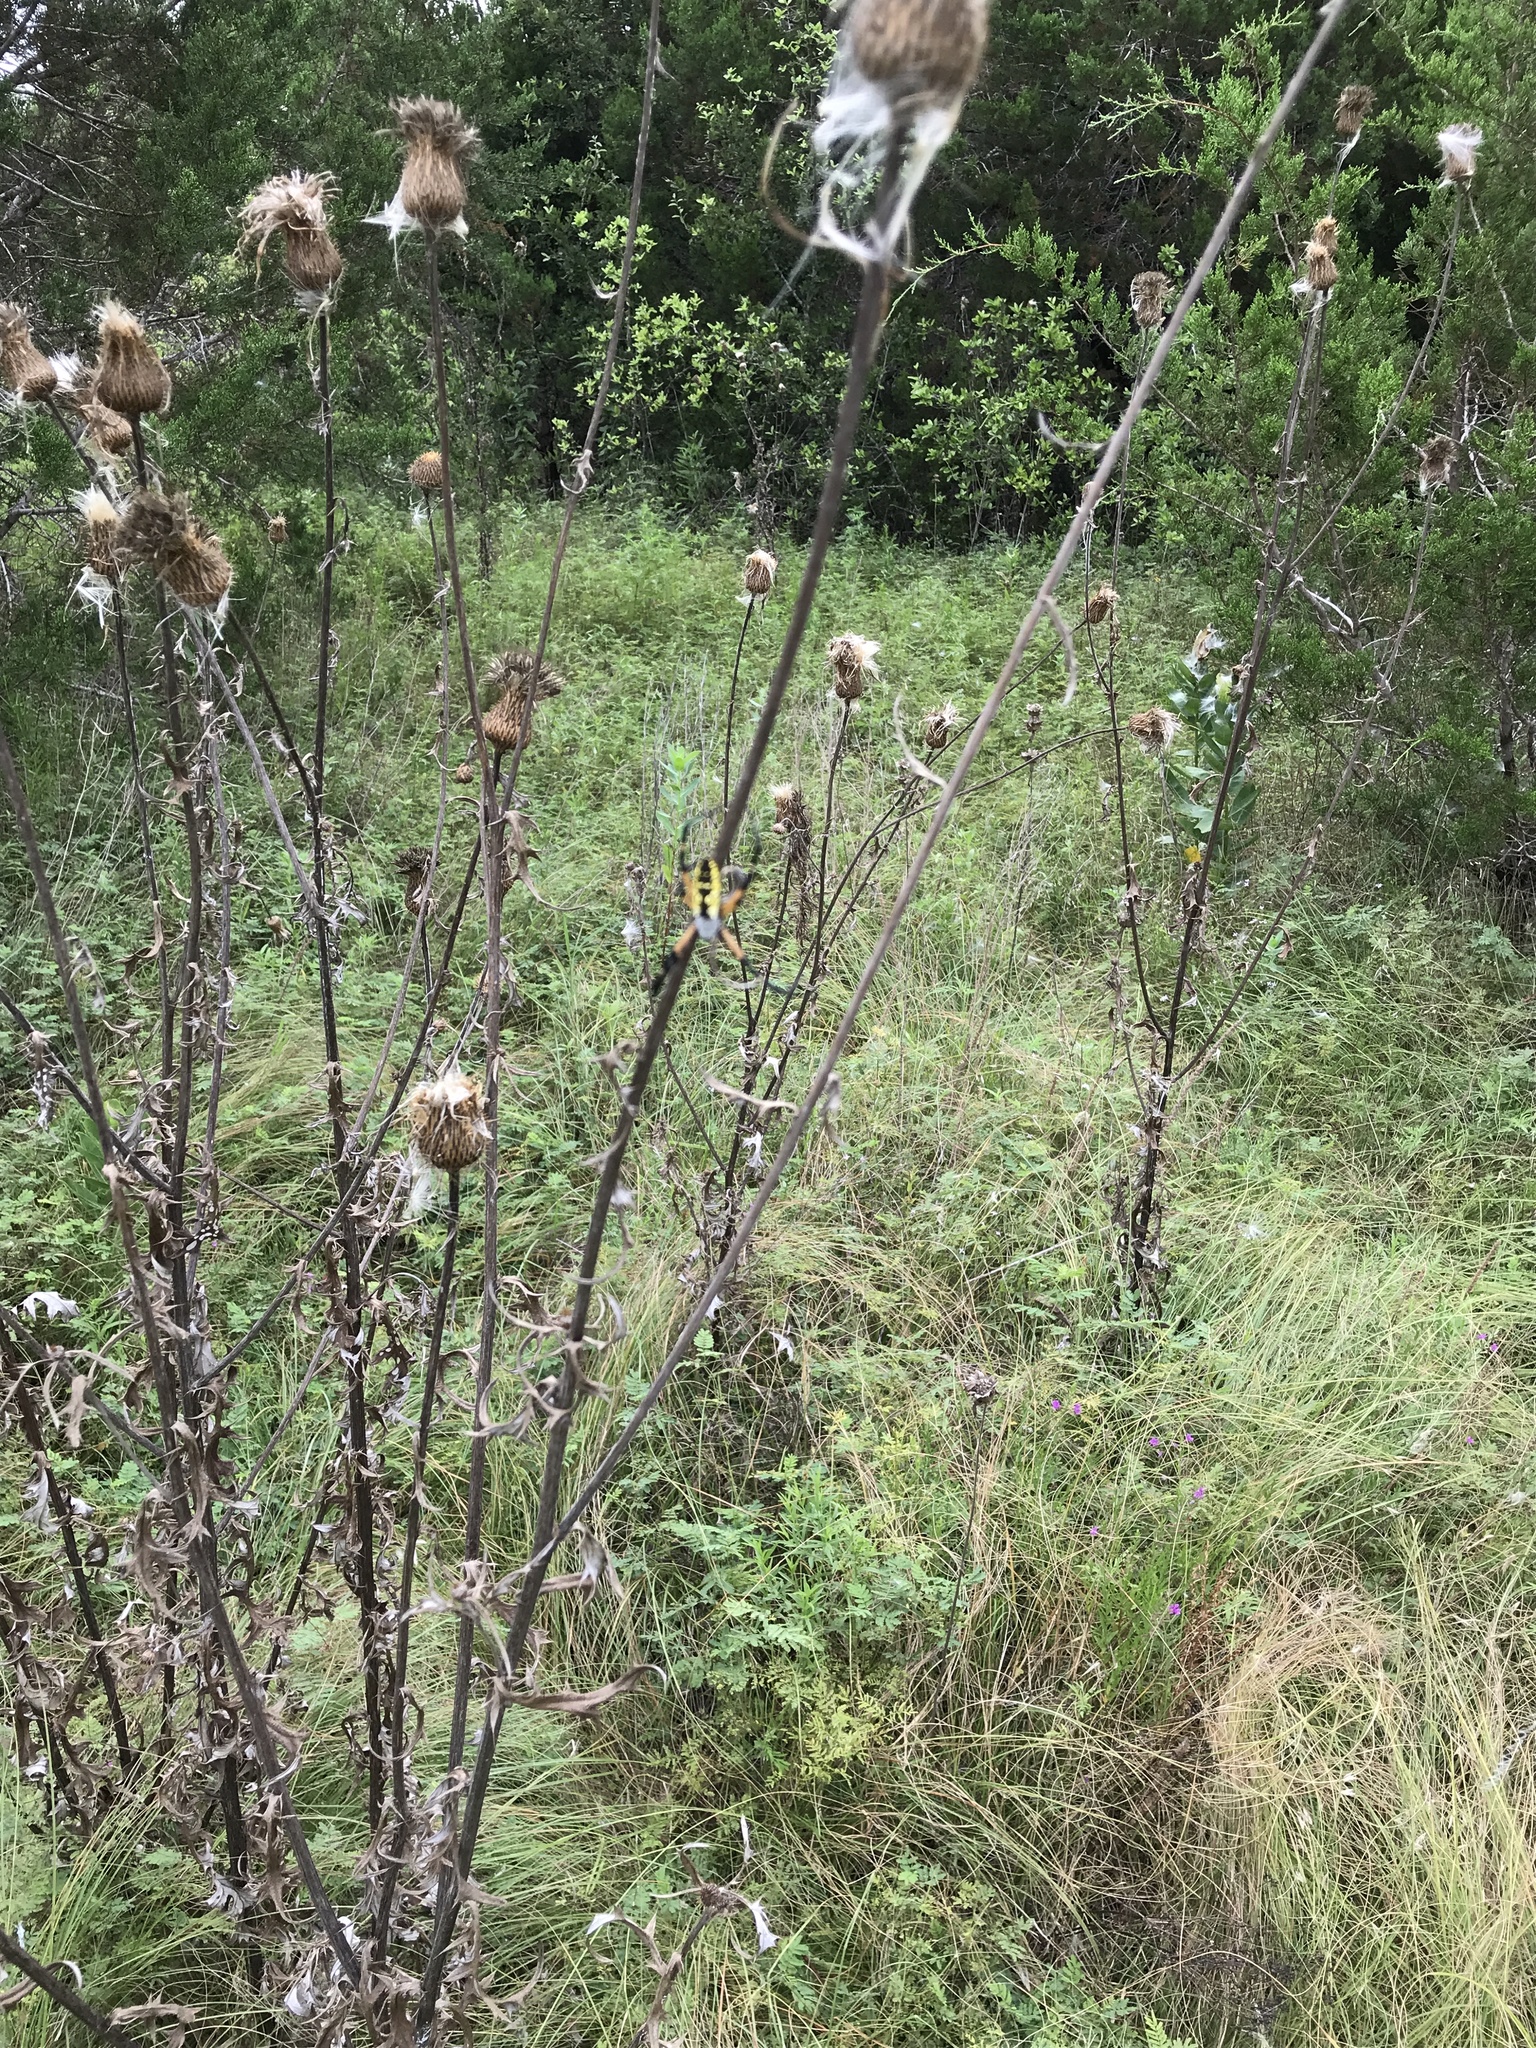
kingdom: Animalia
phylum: Arthropoda
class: Arachnida
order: Araneae
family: Araneidae
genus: Argiope
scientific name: Argiope aurantia
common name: Orb weavers
